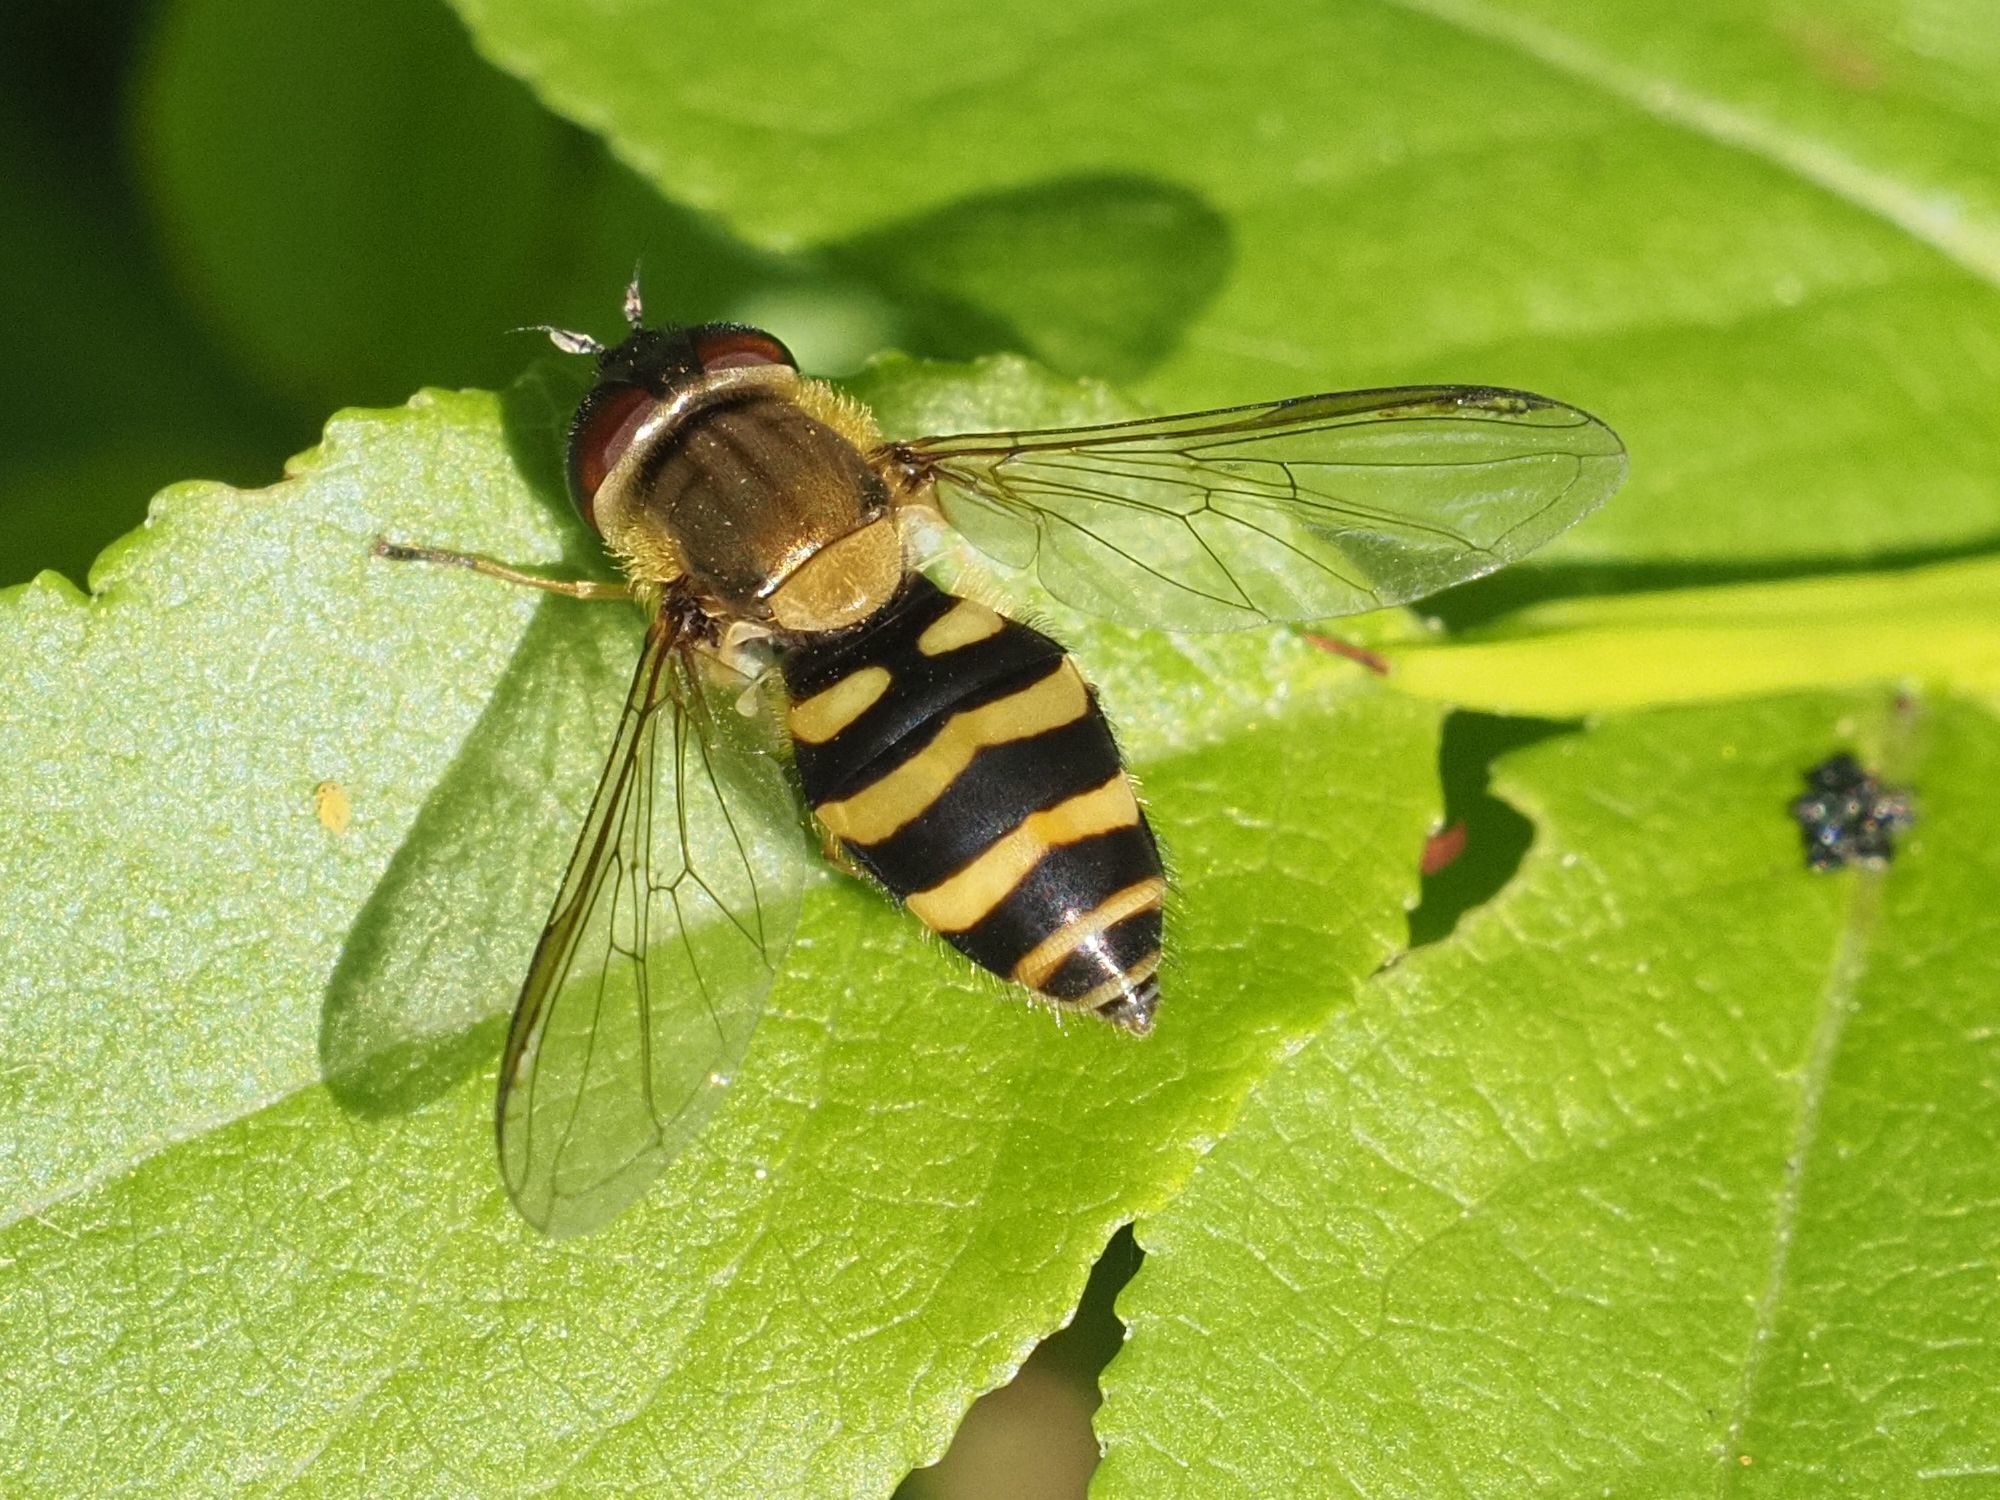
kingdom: Animalia
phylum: Arthropoda
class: Insecta
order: Diptera
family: Syrphidae
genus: Syrphus
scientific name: Syrphus
